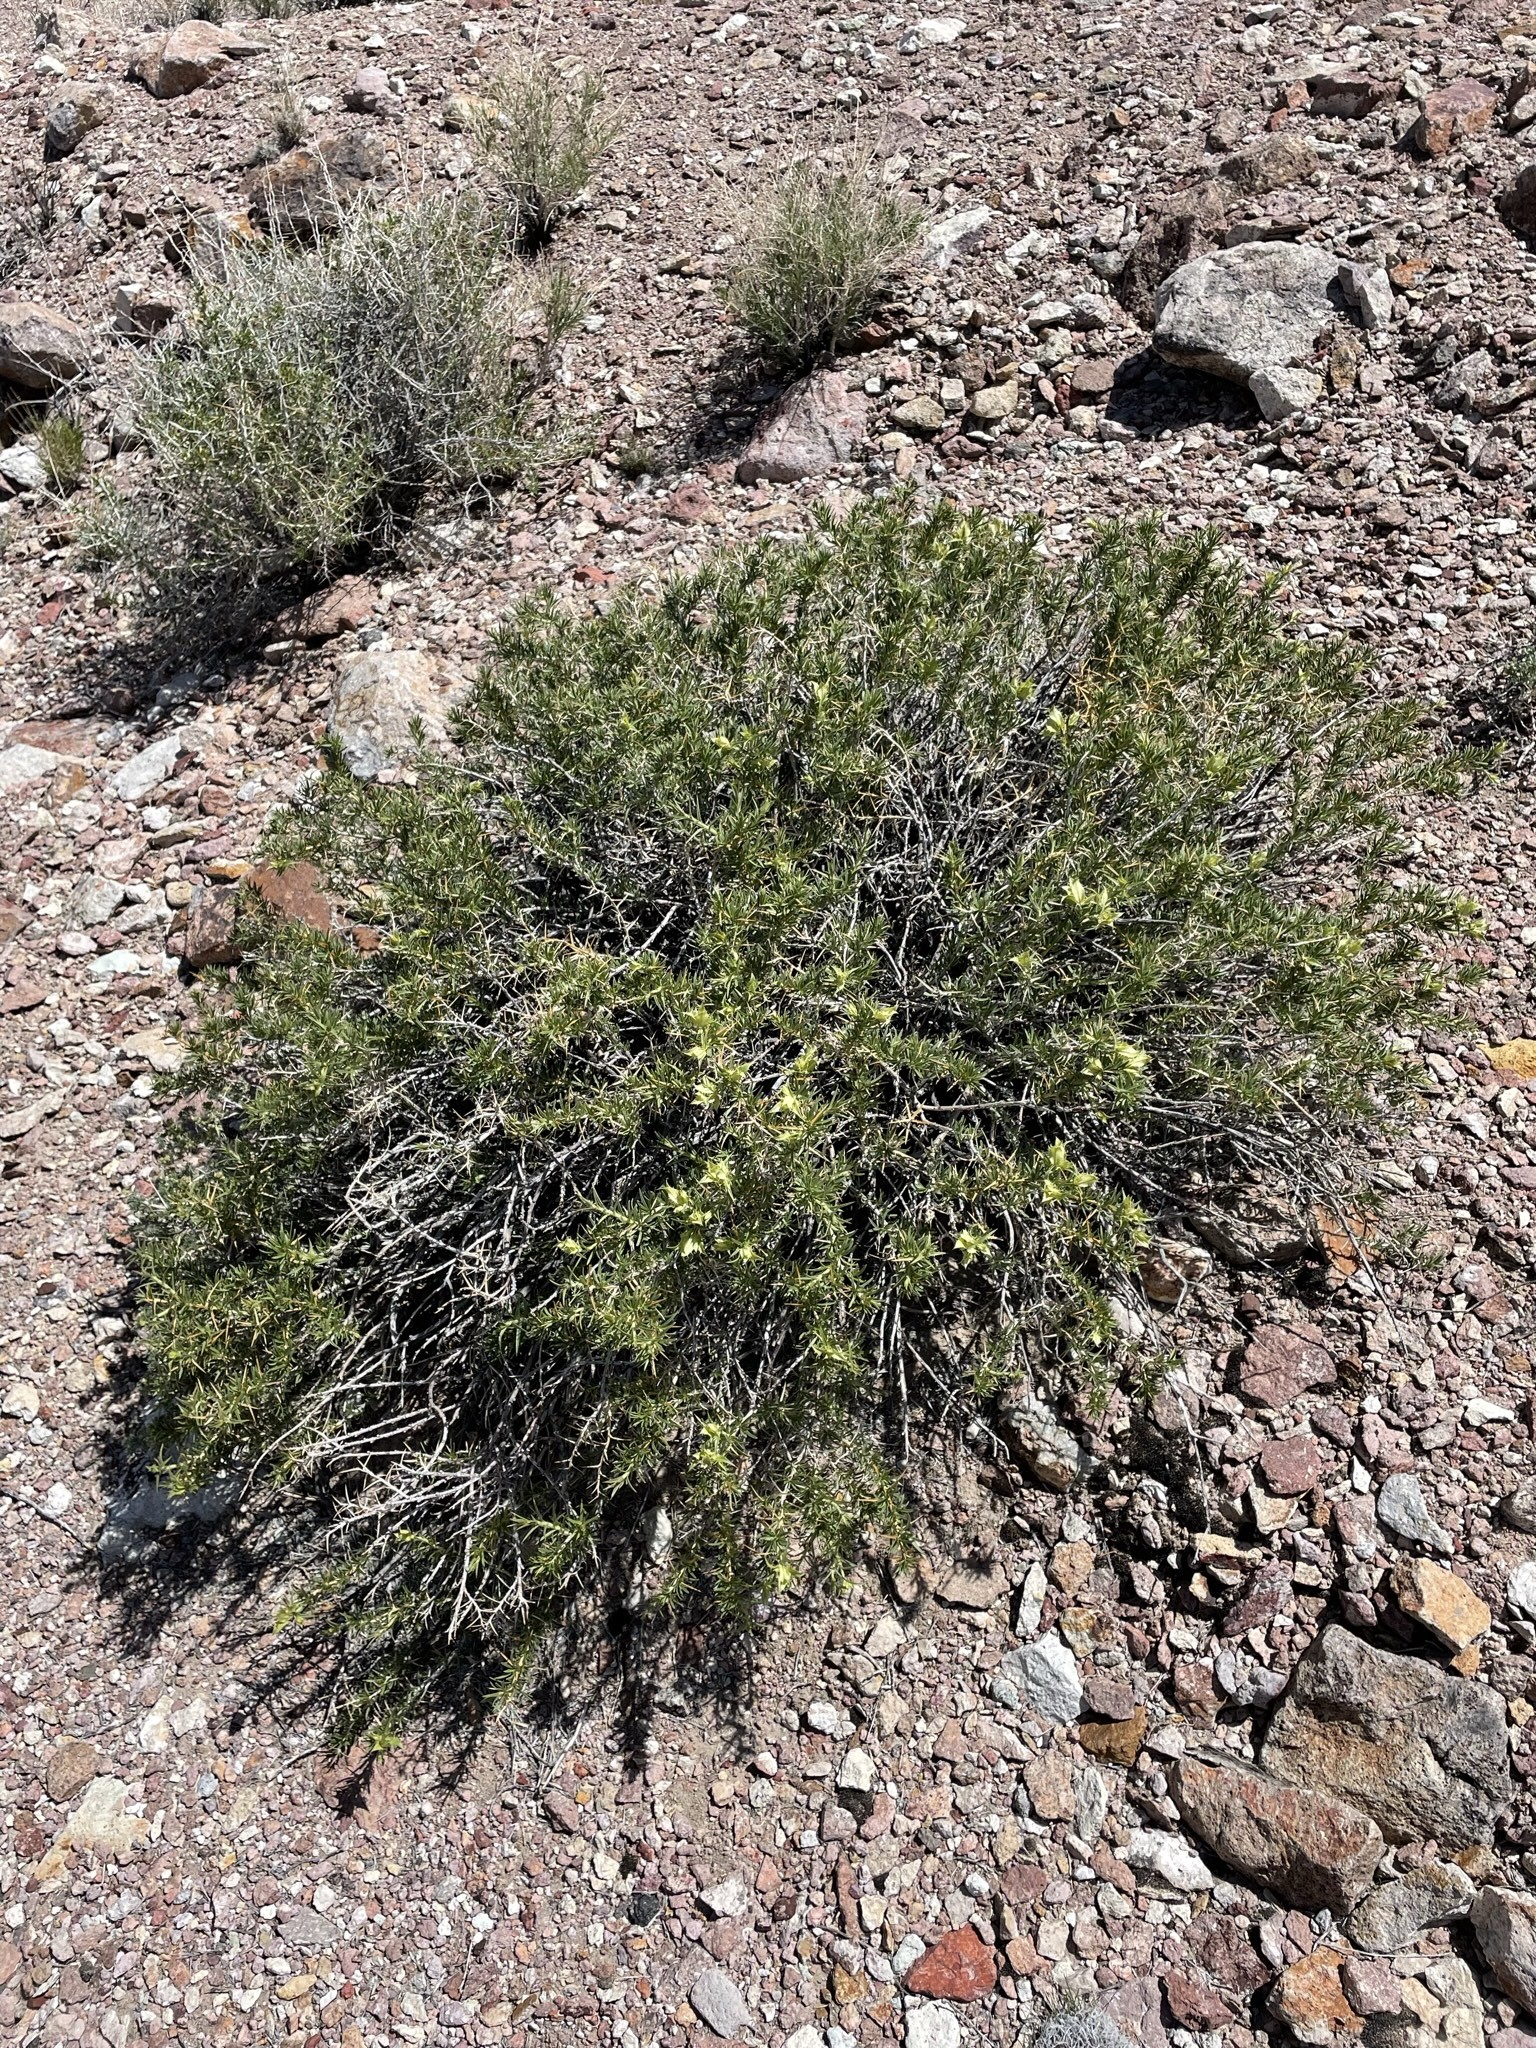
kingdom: Plantae
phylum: Tracheophyta
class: Magnoliopsida
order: Asterales
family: Asteraceae
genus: Hecastocleis
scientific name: Hecastocleis shockleyi
